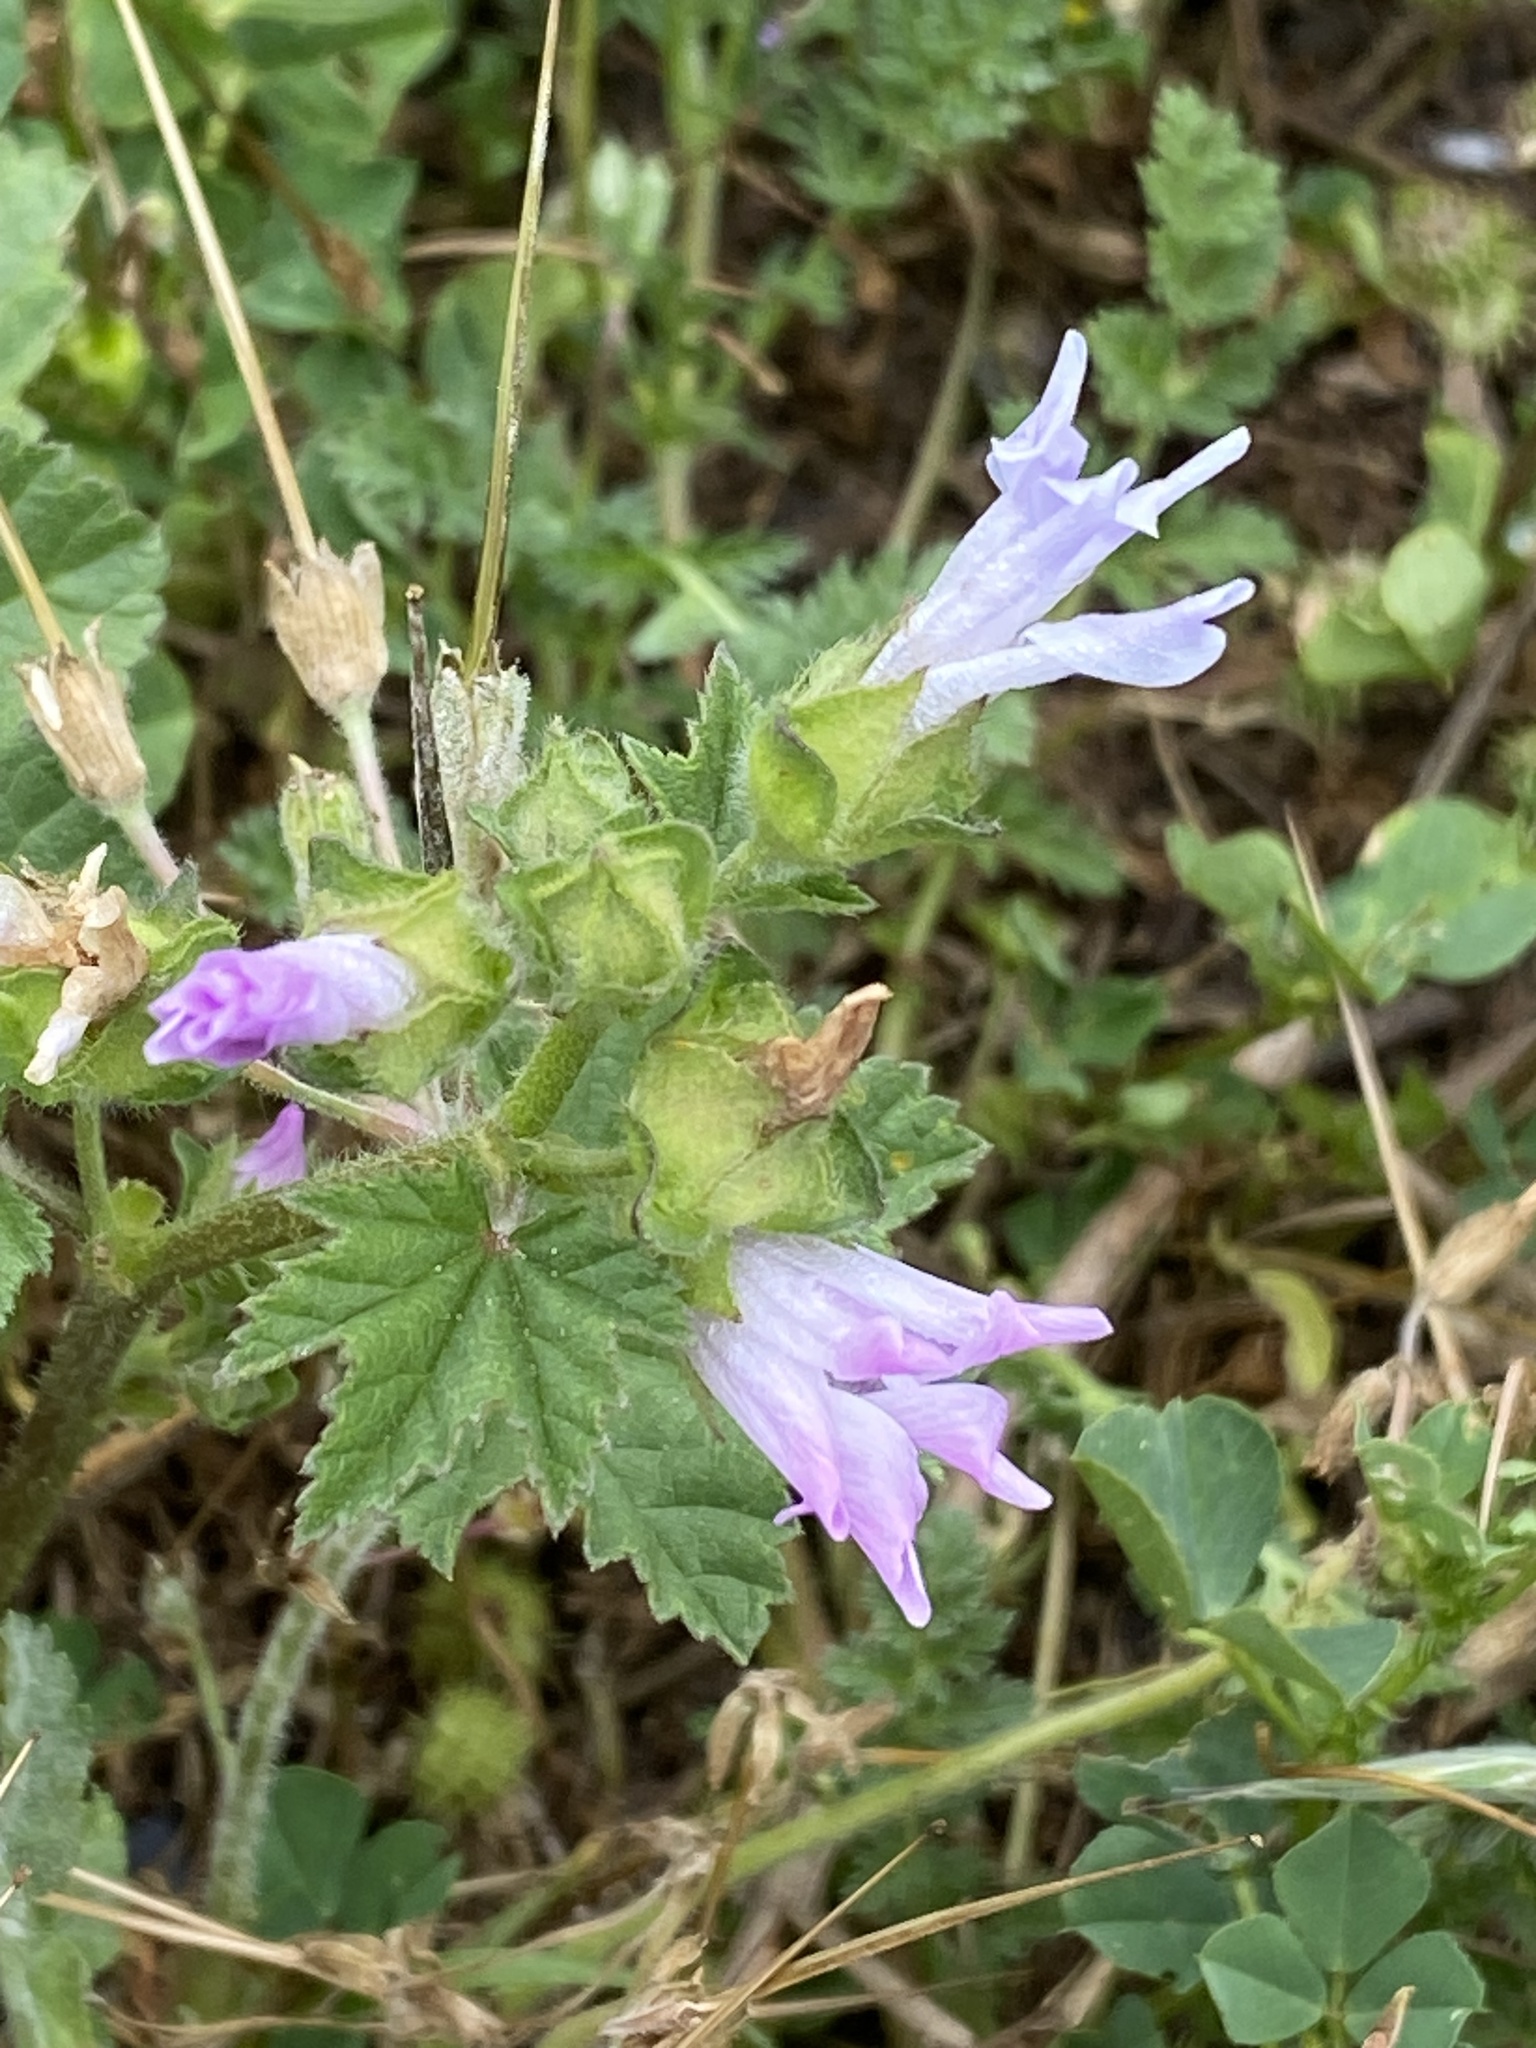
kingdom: Plantae
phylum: Tracheophyta
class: Magnoliopsida
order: Malvales
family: Malvaceae
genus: Malva
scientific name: Malva multiflora
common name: Cheeseweed
